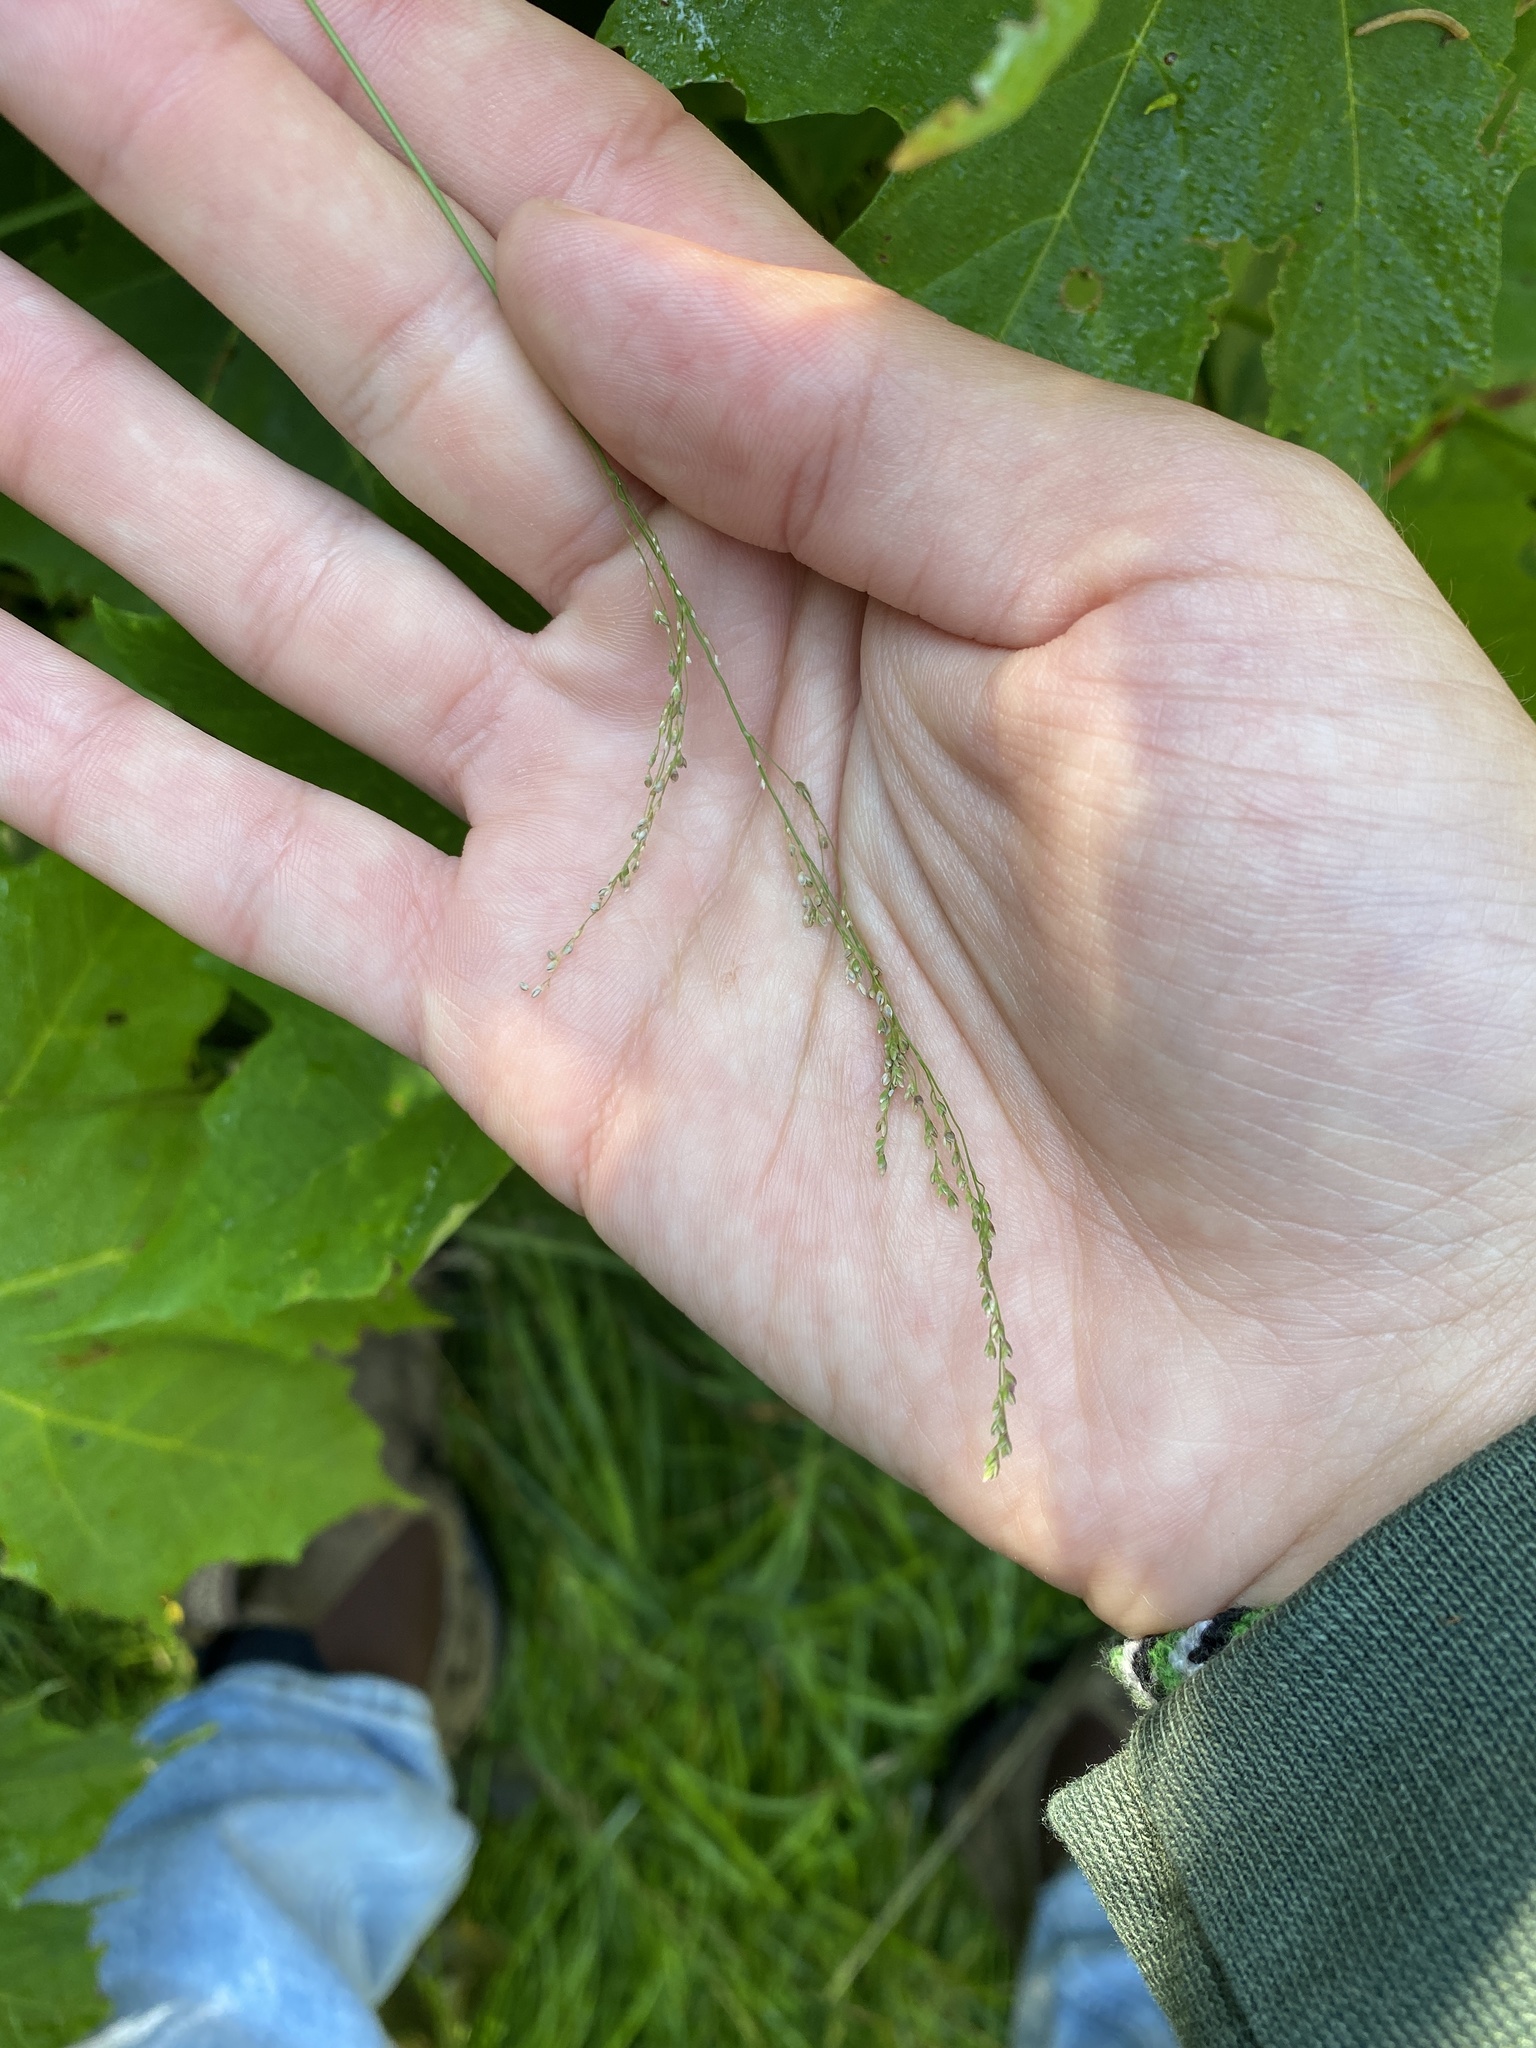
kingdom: Plantae
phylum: Tracheophyta
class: Liliopsida
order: Poales
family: Poaceae
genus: Glyceria
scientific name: Glyceria striata
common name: Fowl manna grass
